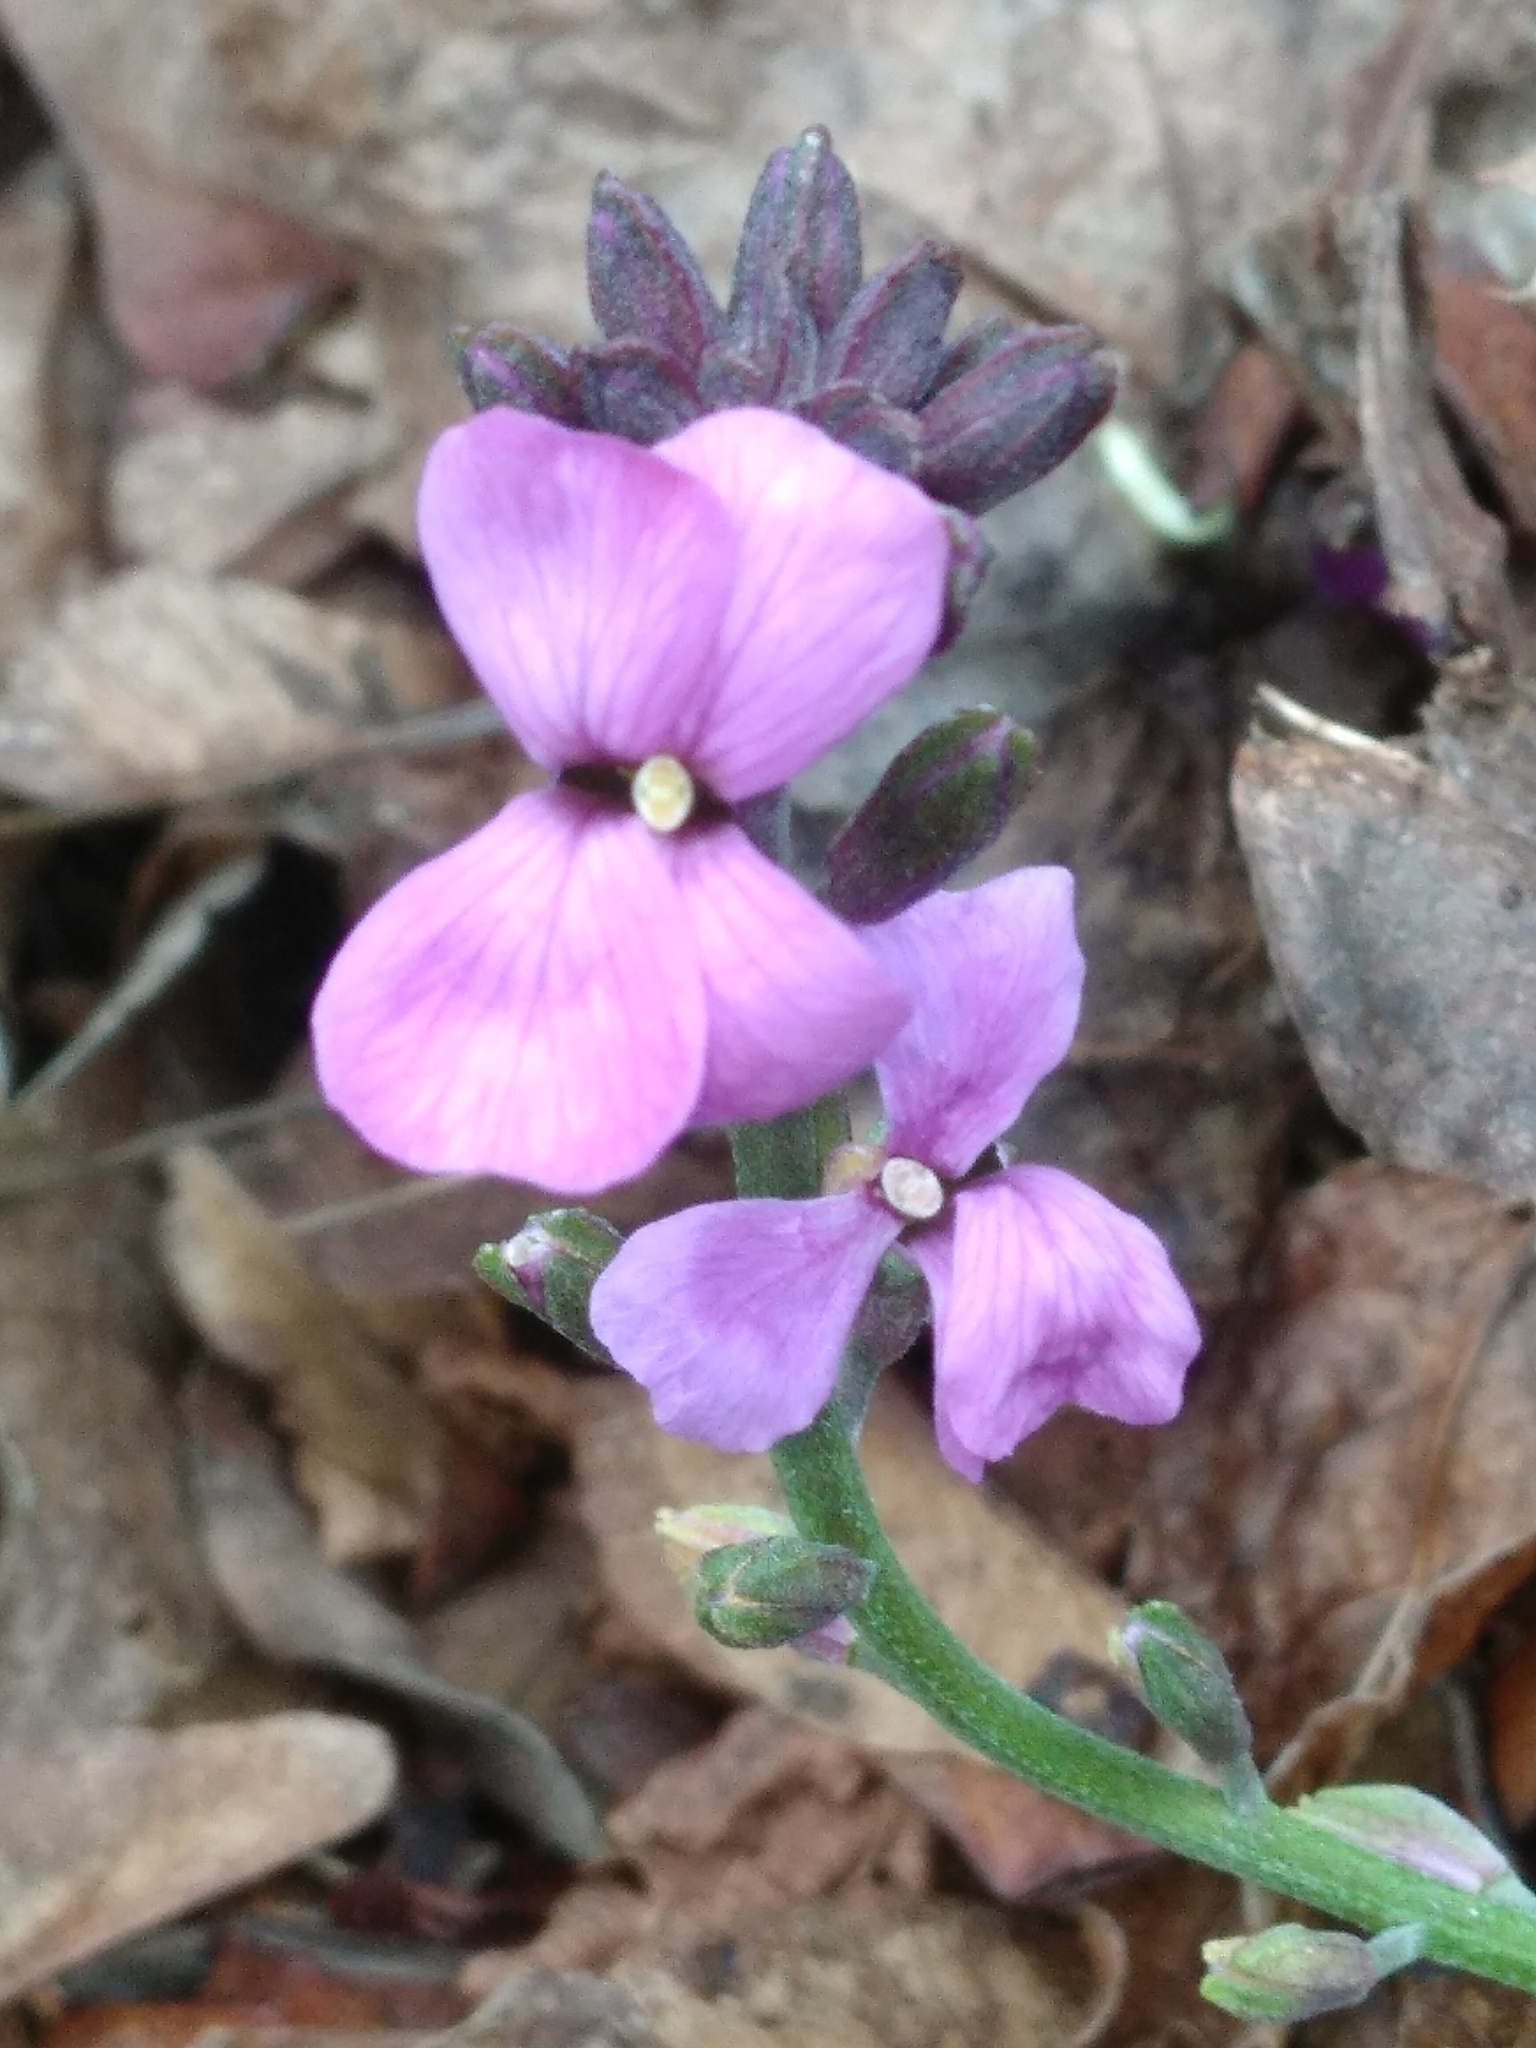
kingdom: Plantae
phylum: Tracheophyta
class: Magnoliopsida
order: Brassicales
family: Brassicaceae
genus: Erysimum
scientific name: Erysimum linifolium
